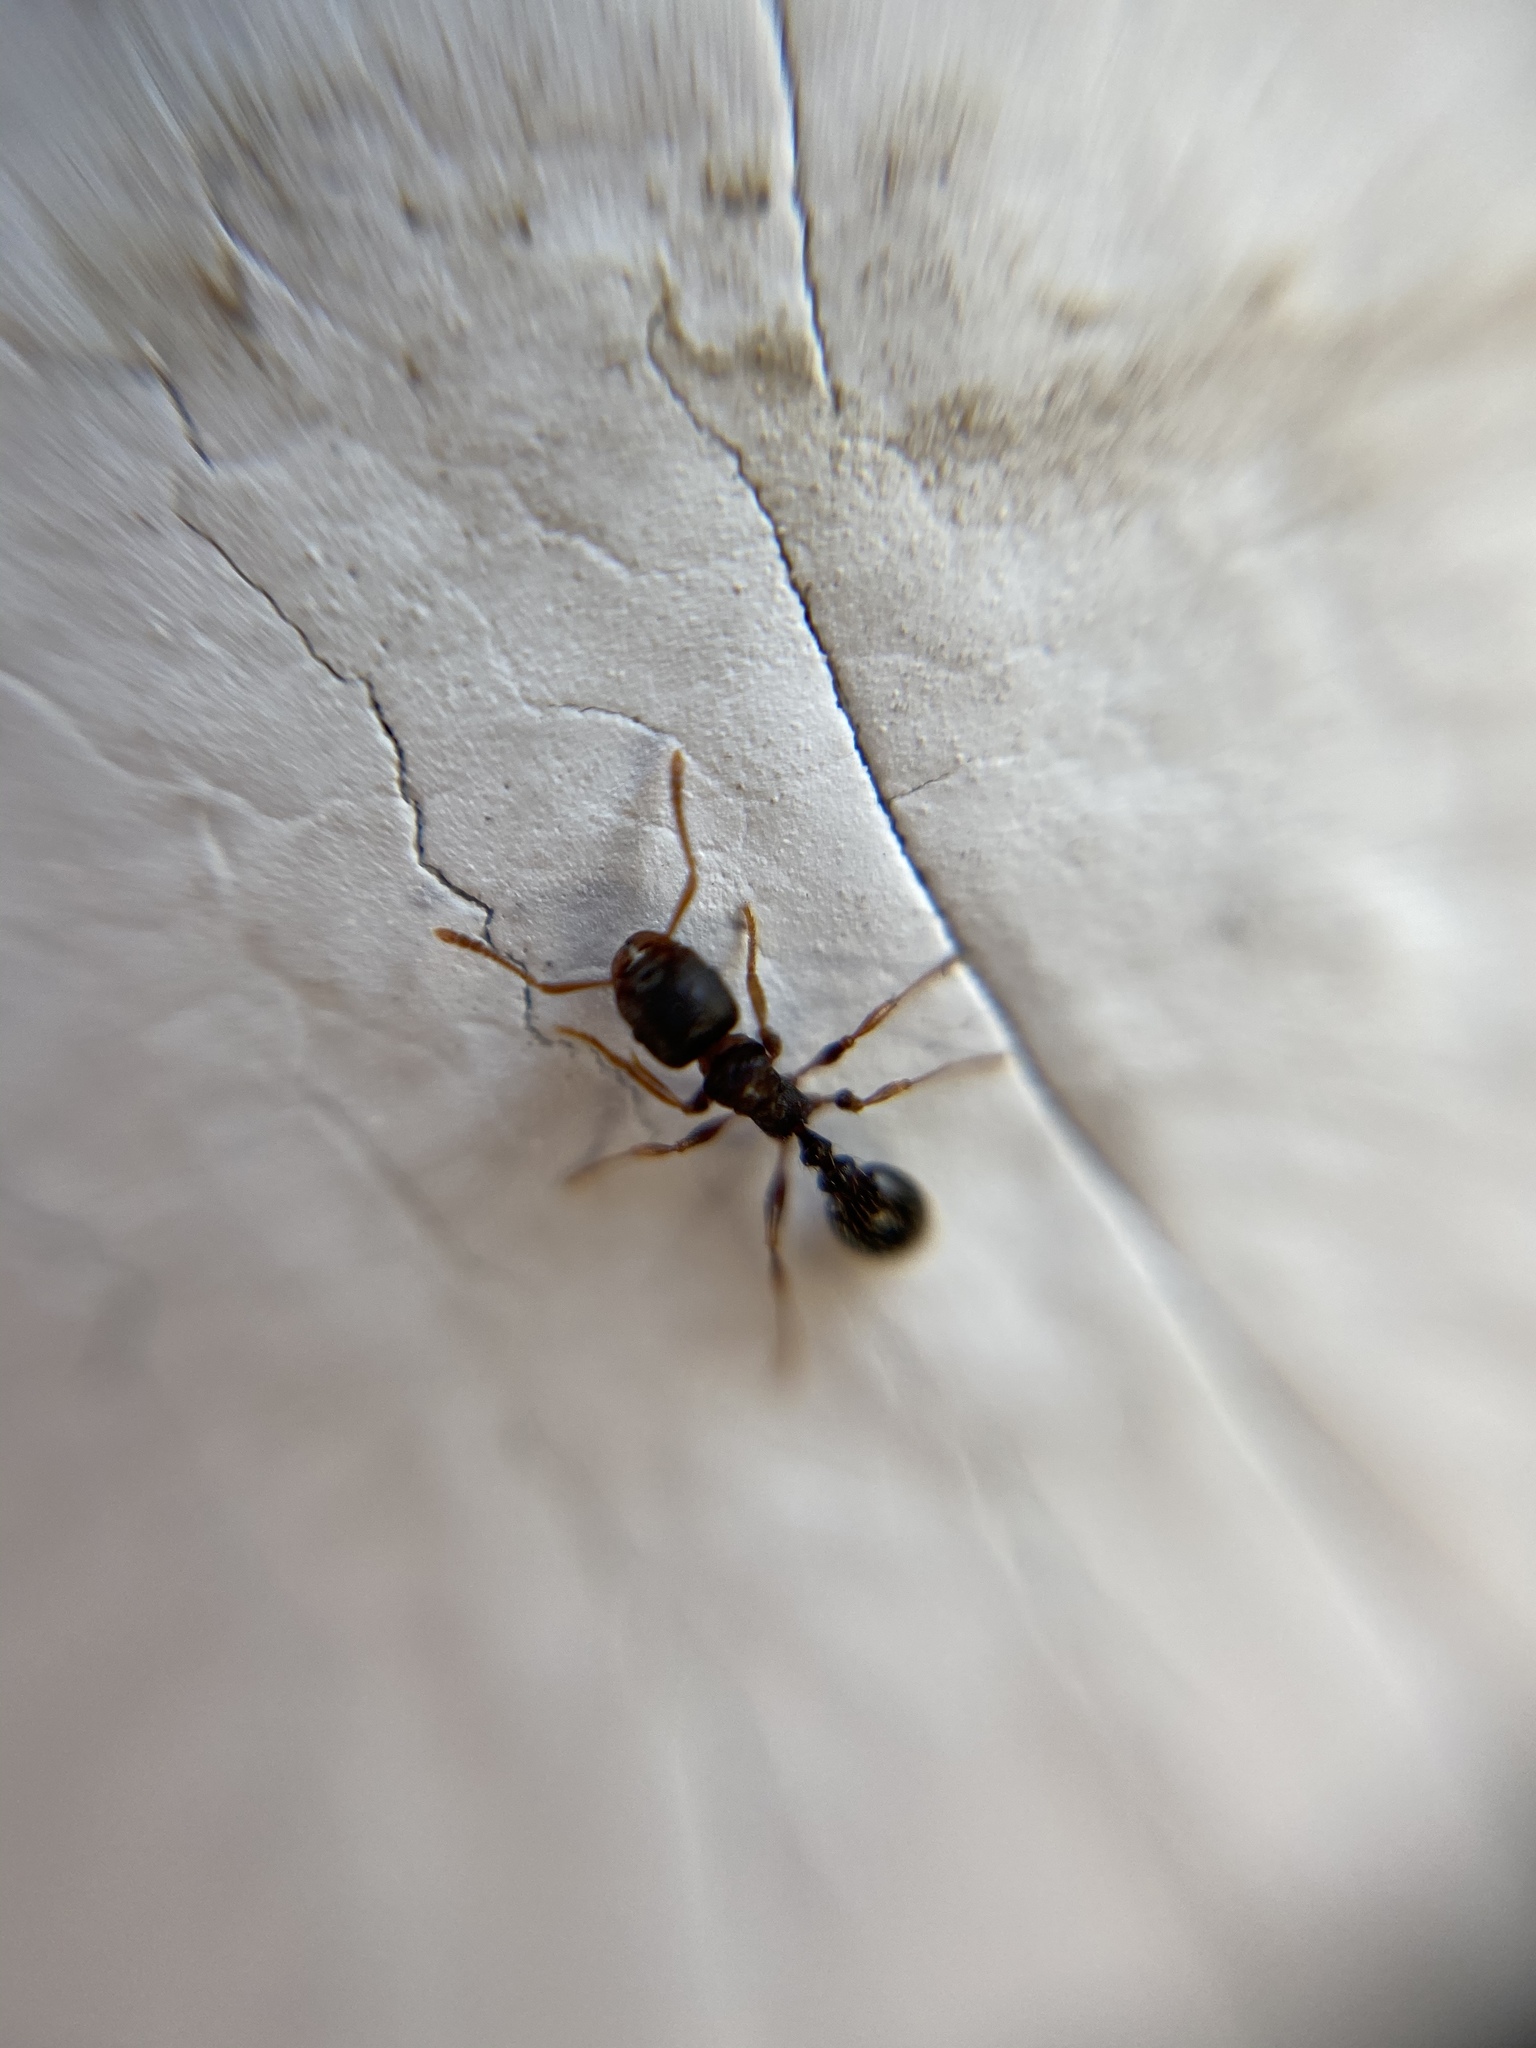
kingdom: Animalia
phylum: Arthropoda
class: Insecta
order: Hymenoptera
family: Formicidae
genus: Tetramorium
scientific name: Tetramorium immigrans
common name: Pavement ant
